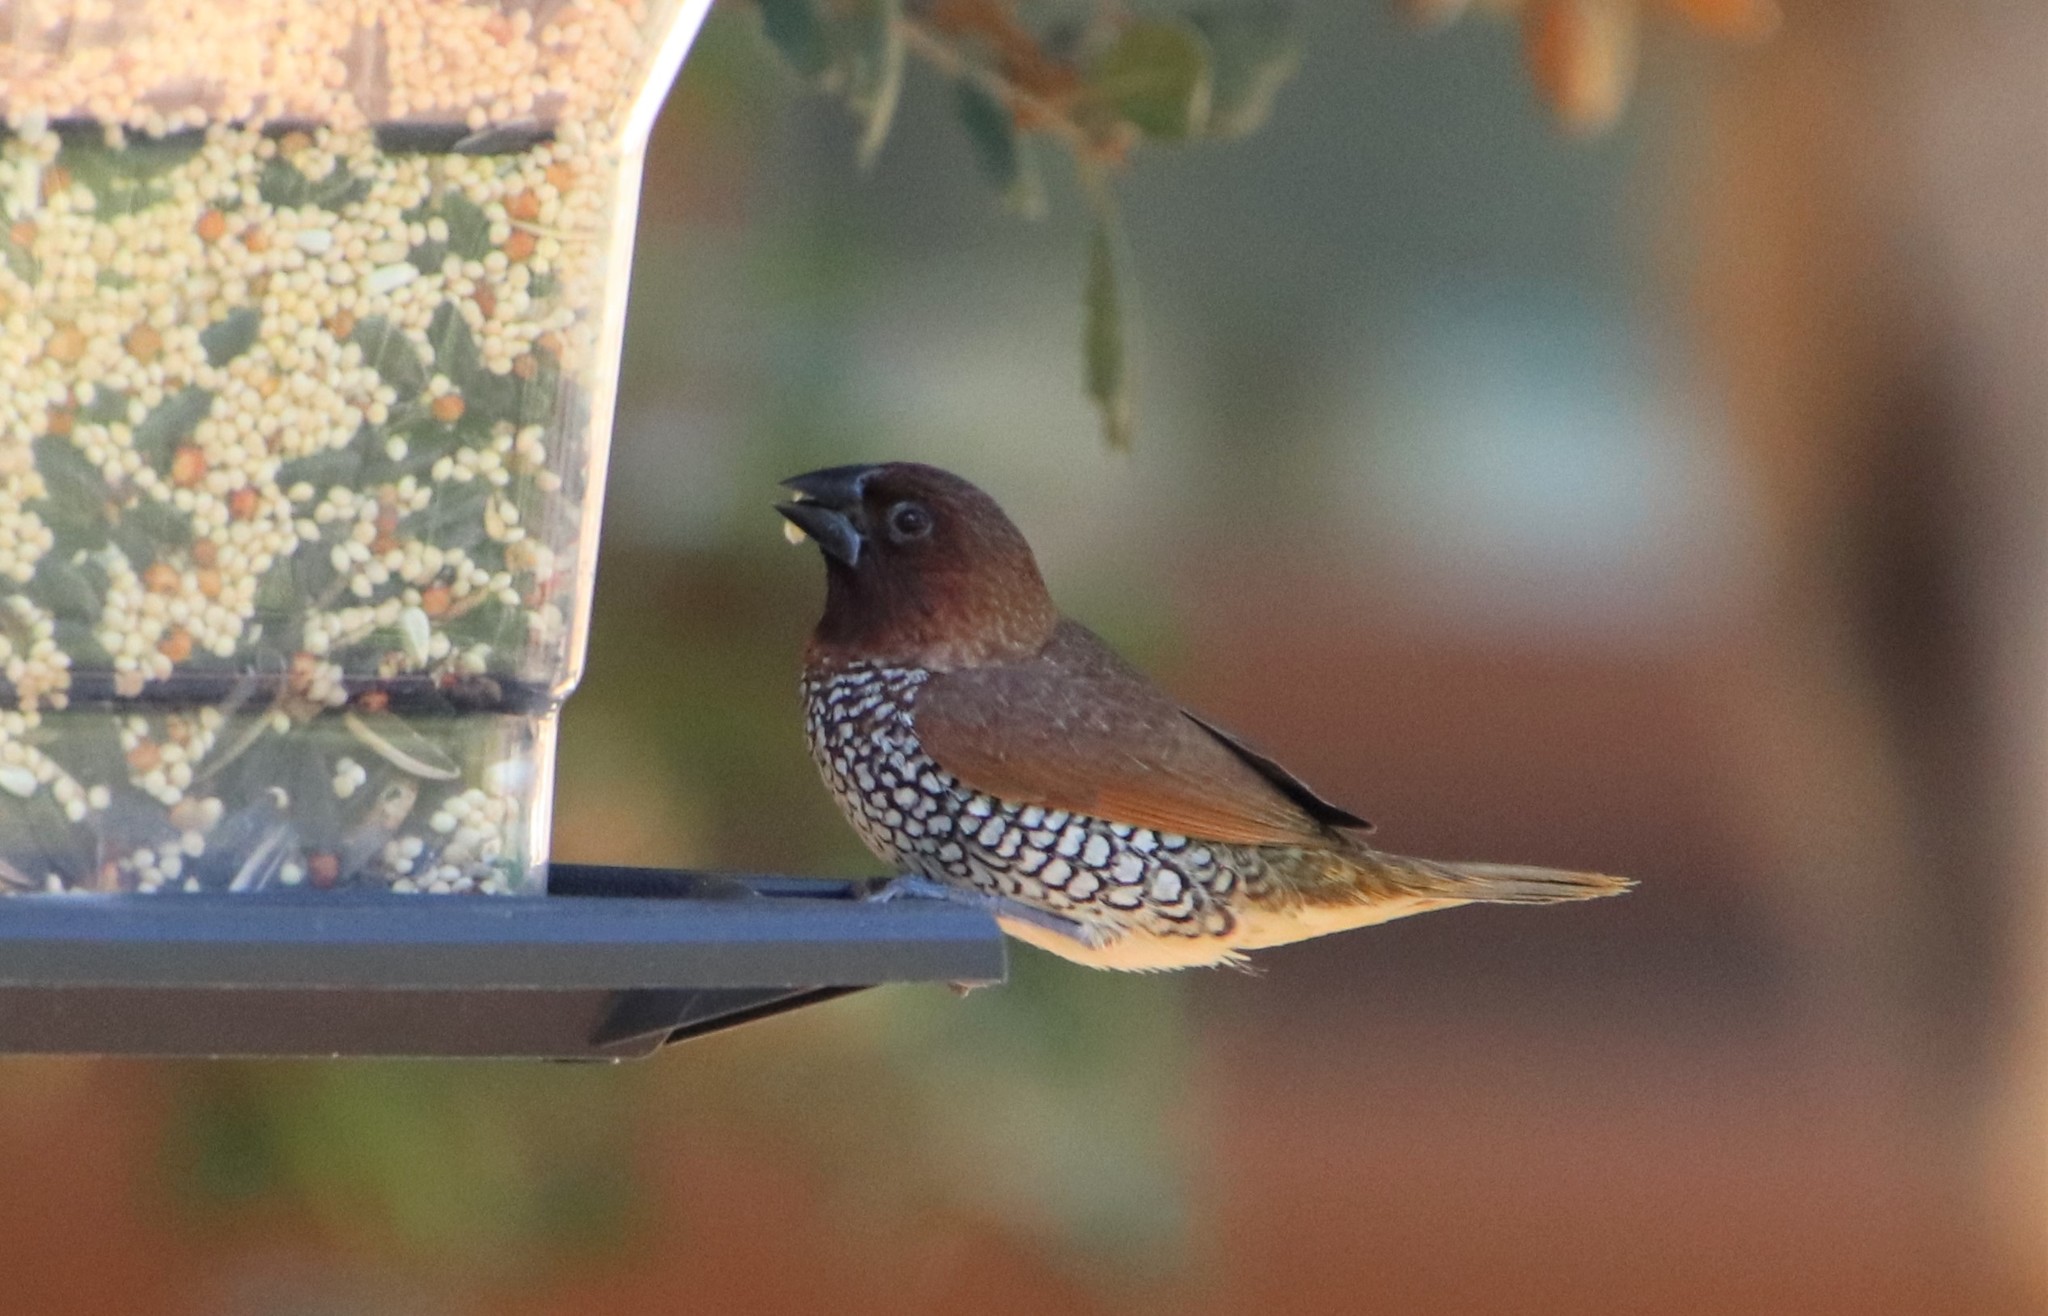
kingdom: Animalia
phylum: Chordata
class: Aves
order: Passeriformes
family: Estrildidae
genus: Lonchura
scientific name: Lonchura punctulata
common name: Scaly-breasted munia
